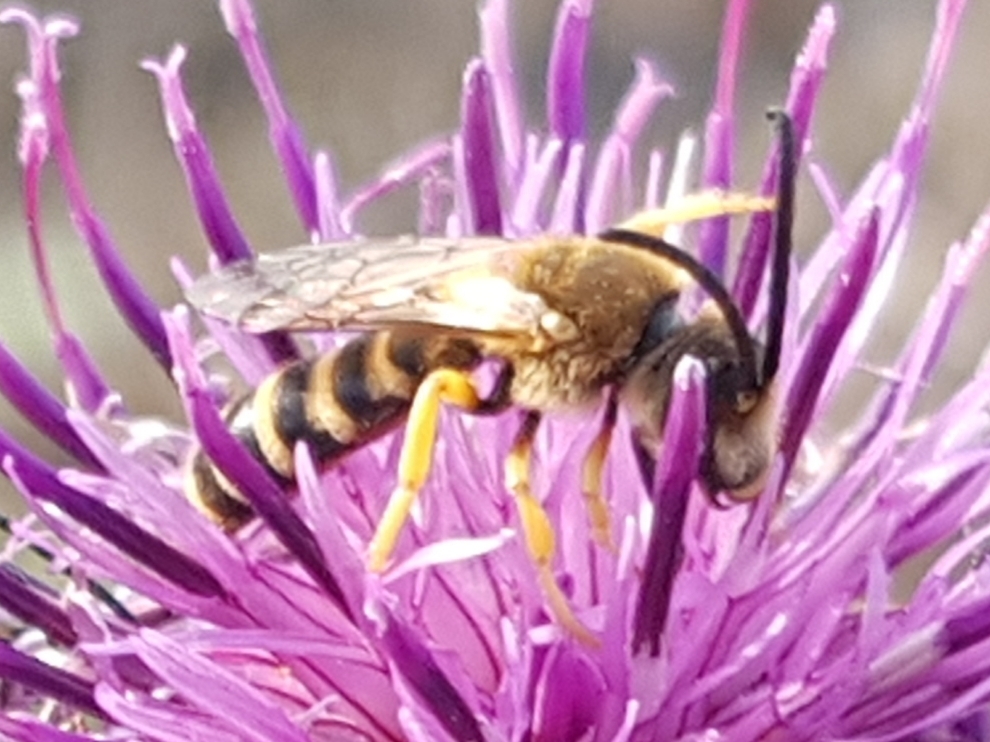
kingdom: Animalia
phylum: Arthropoda
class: Insecta
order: Hymenoptera
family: Halictidae
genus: Halictus
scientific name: Halictus scabiosae
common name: Great banded furrow bee
